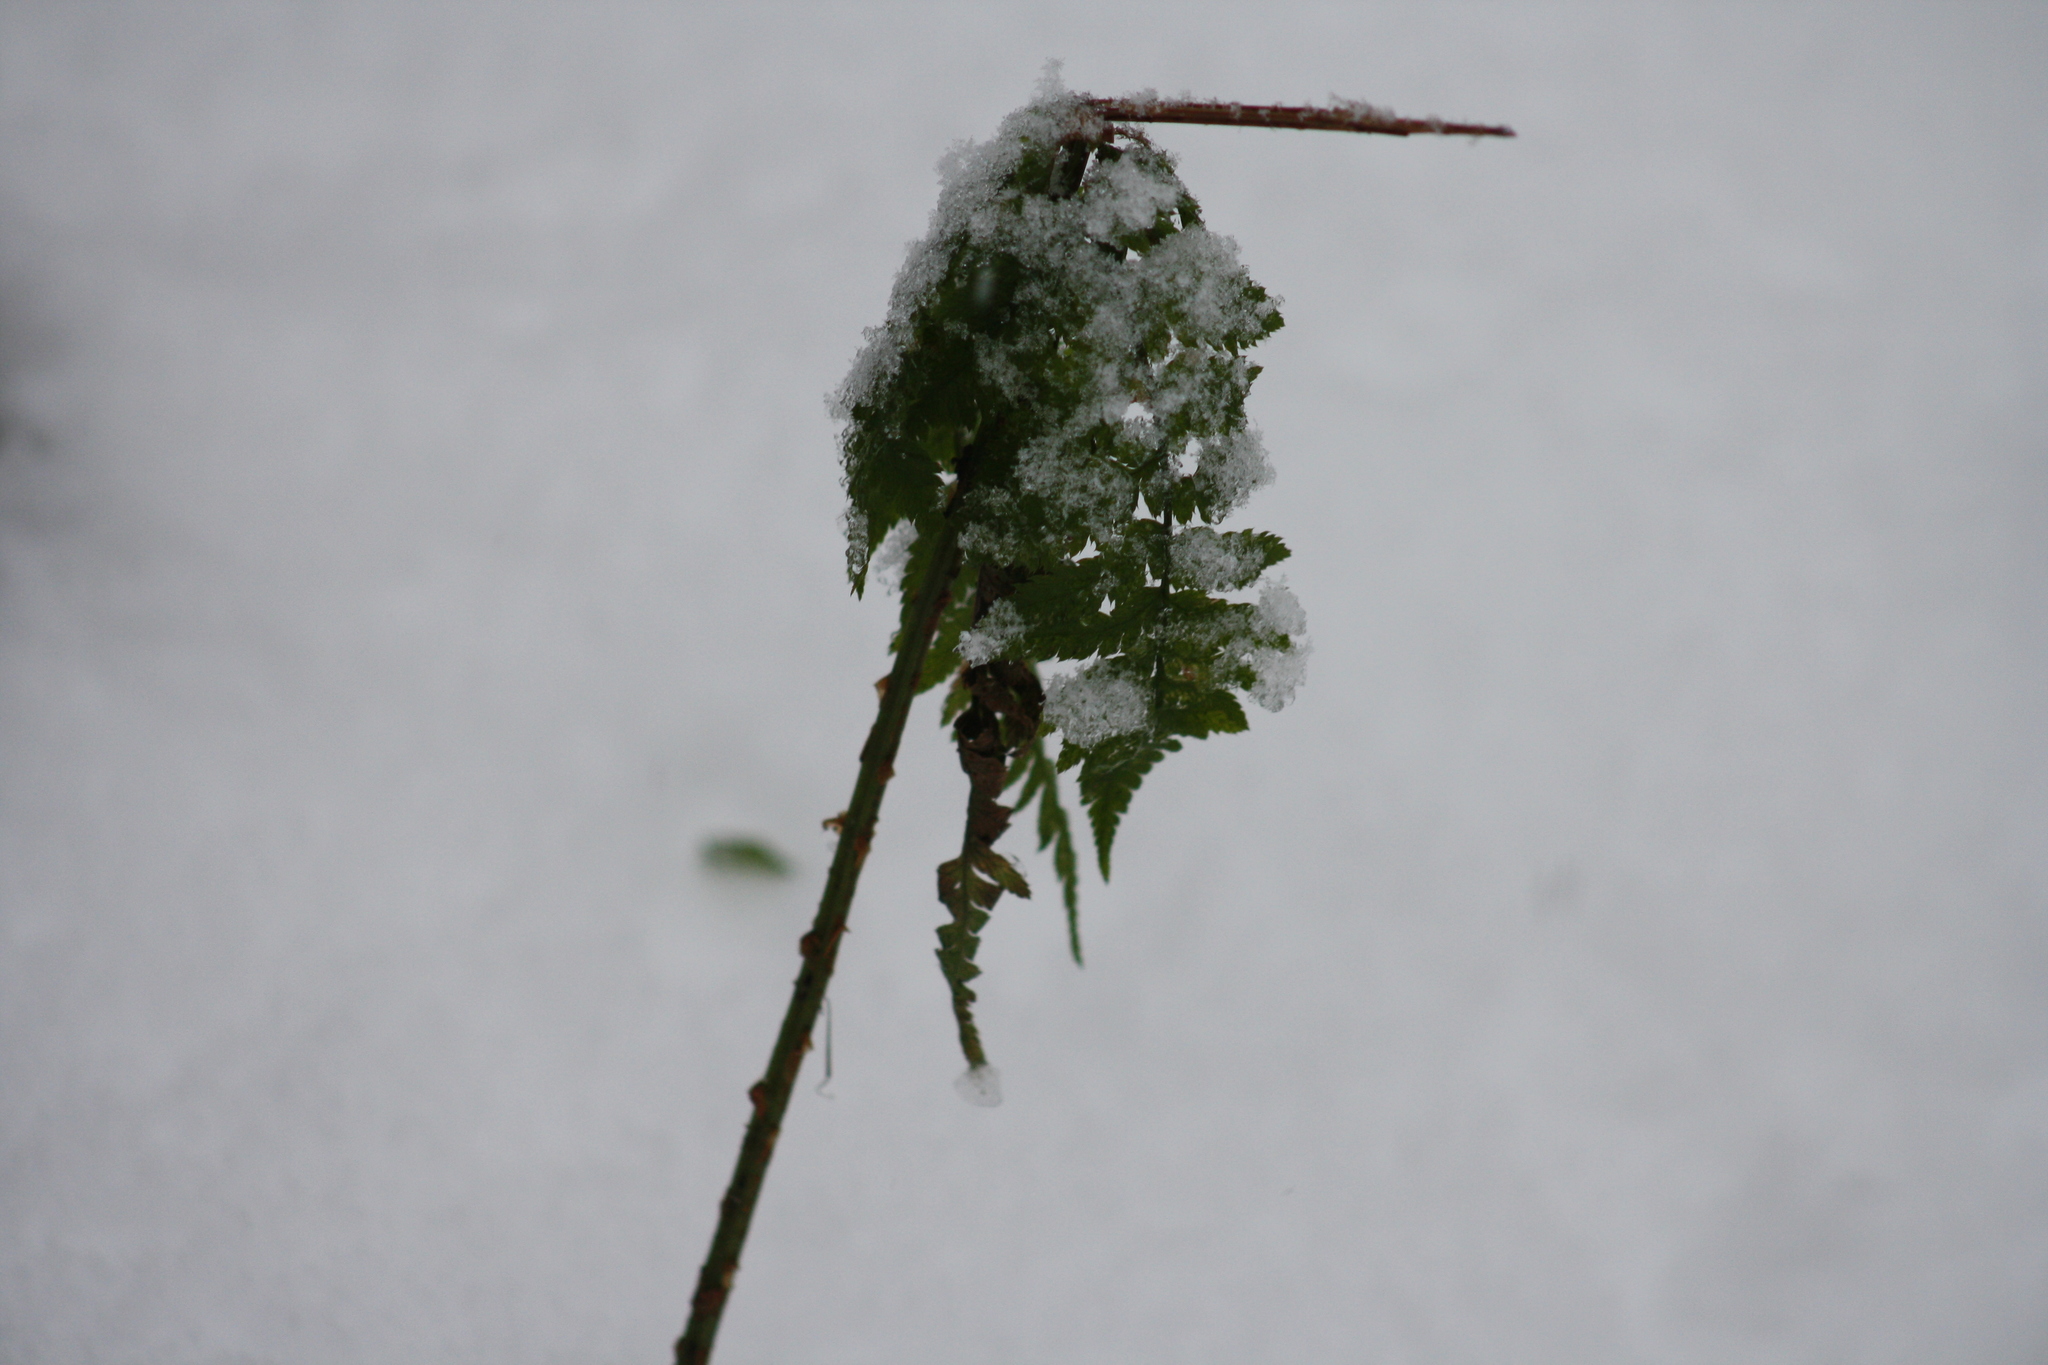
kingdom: Plantae
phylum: Tracheophyta
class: Polypodiopsida
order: Polypodiales
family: Dryopteridaceae
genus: Dryopteris
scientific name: Dryopteris carthusiana
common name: Narrow buckler-fern
